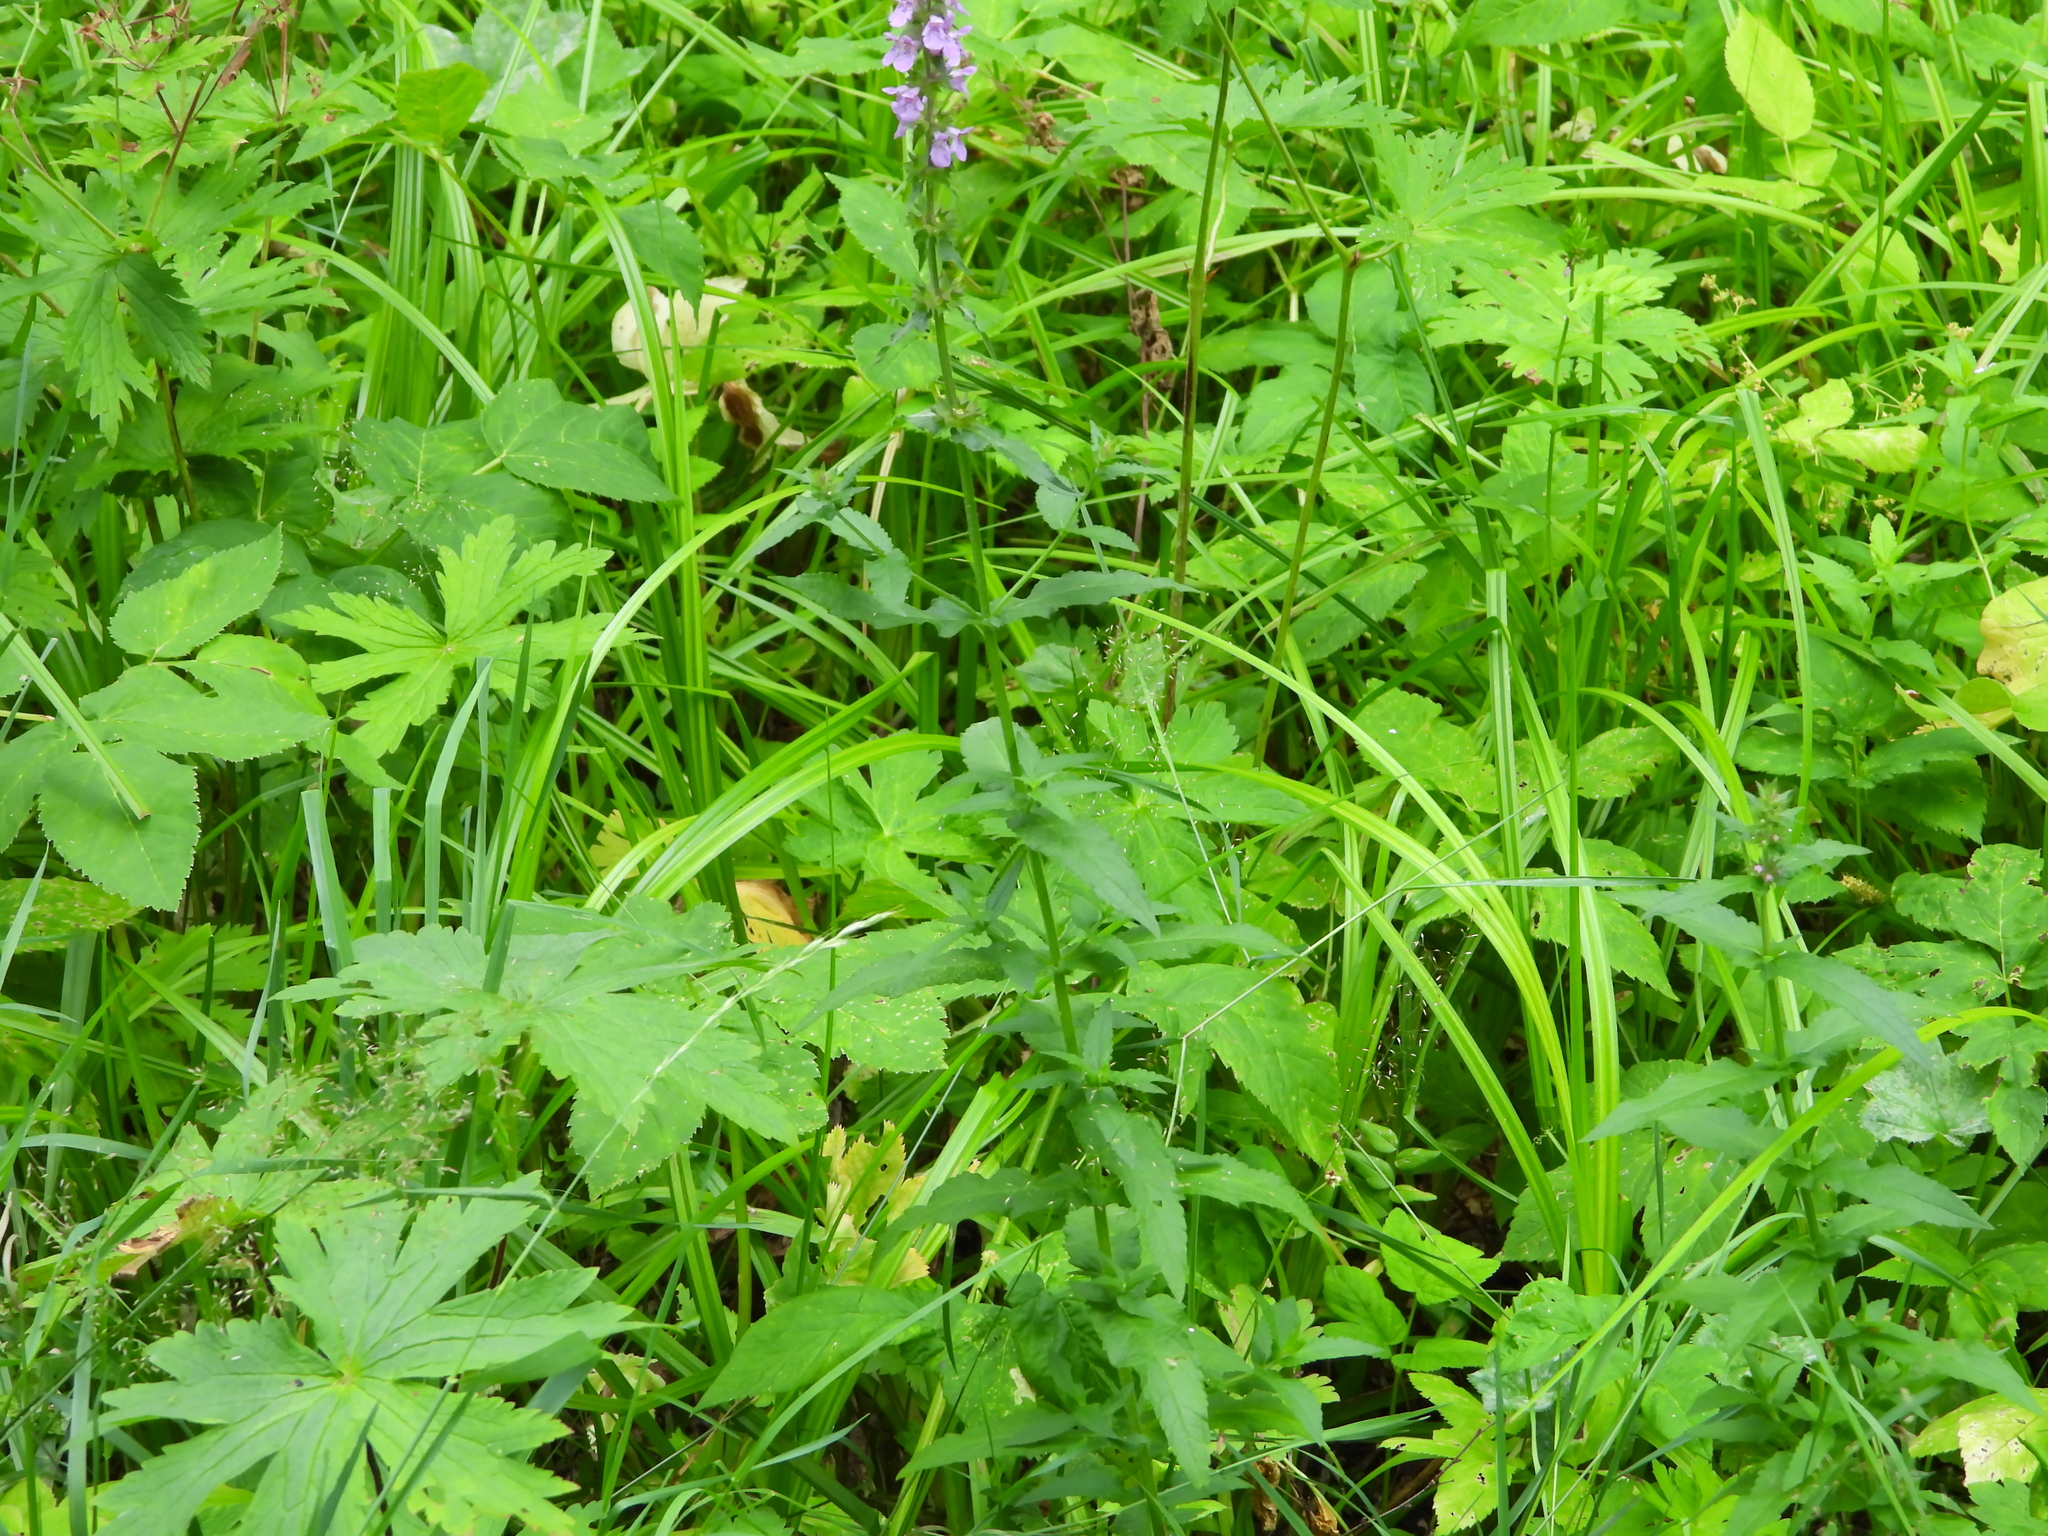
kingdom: Plantae
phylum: Tracheophyta
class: Magnoliopsida
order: Lamiales
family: Lamiaceae
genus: Stachys
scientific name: Stachys palustris
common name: Marsh woundwort
